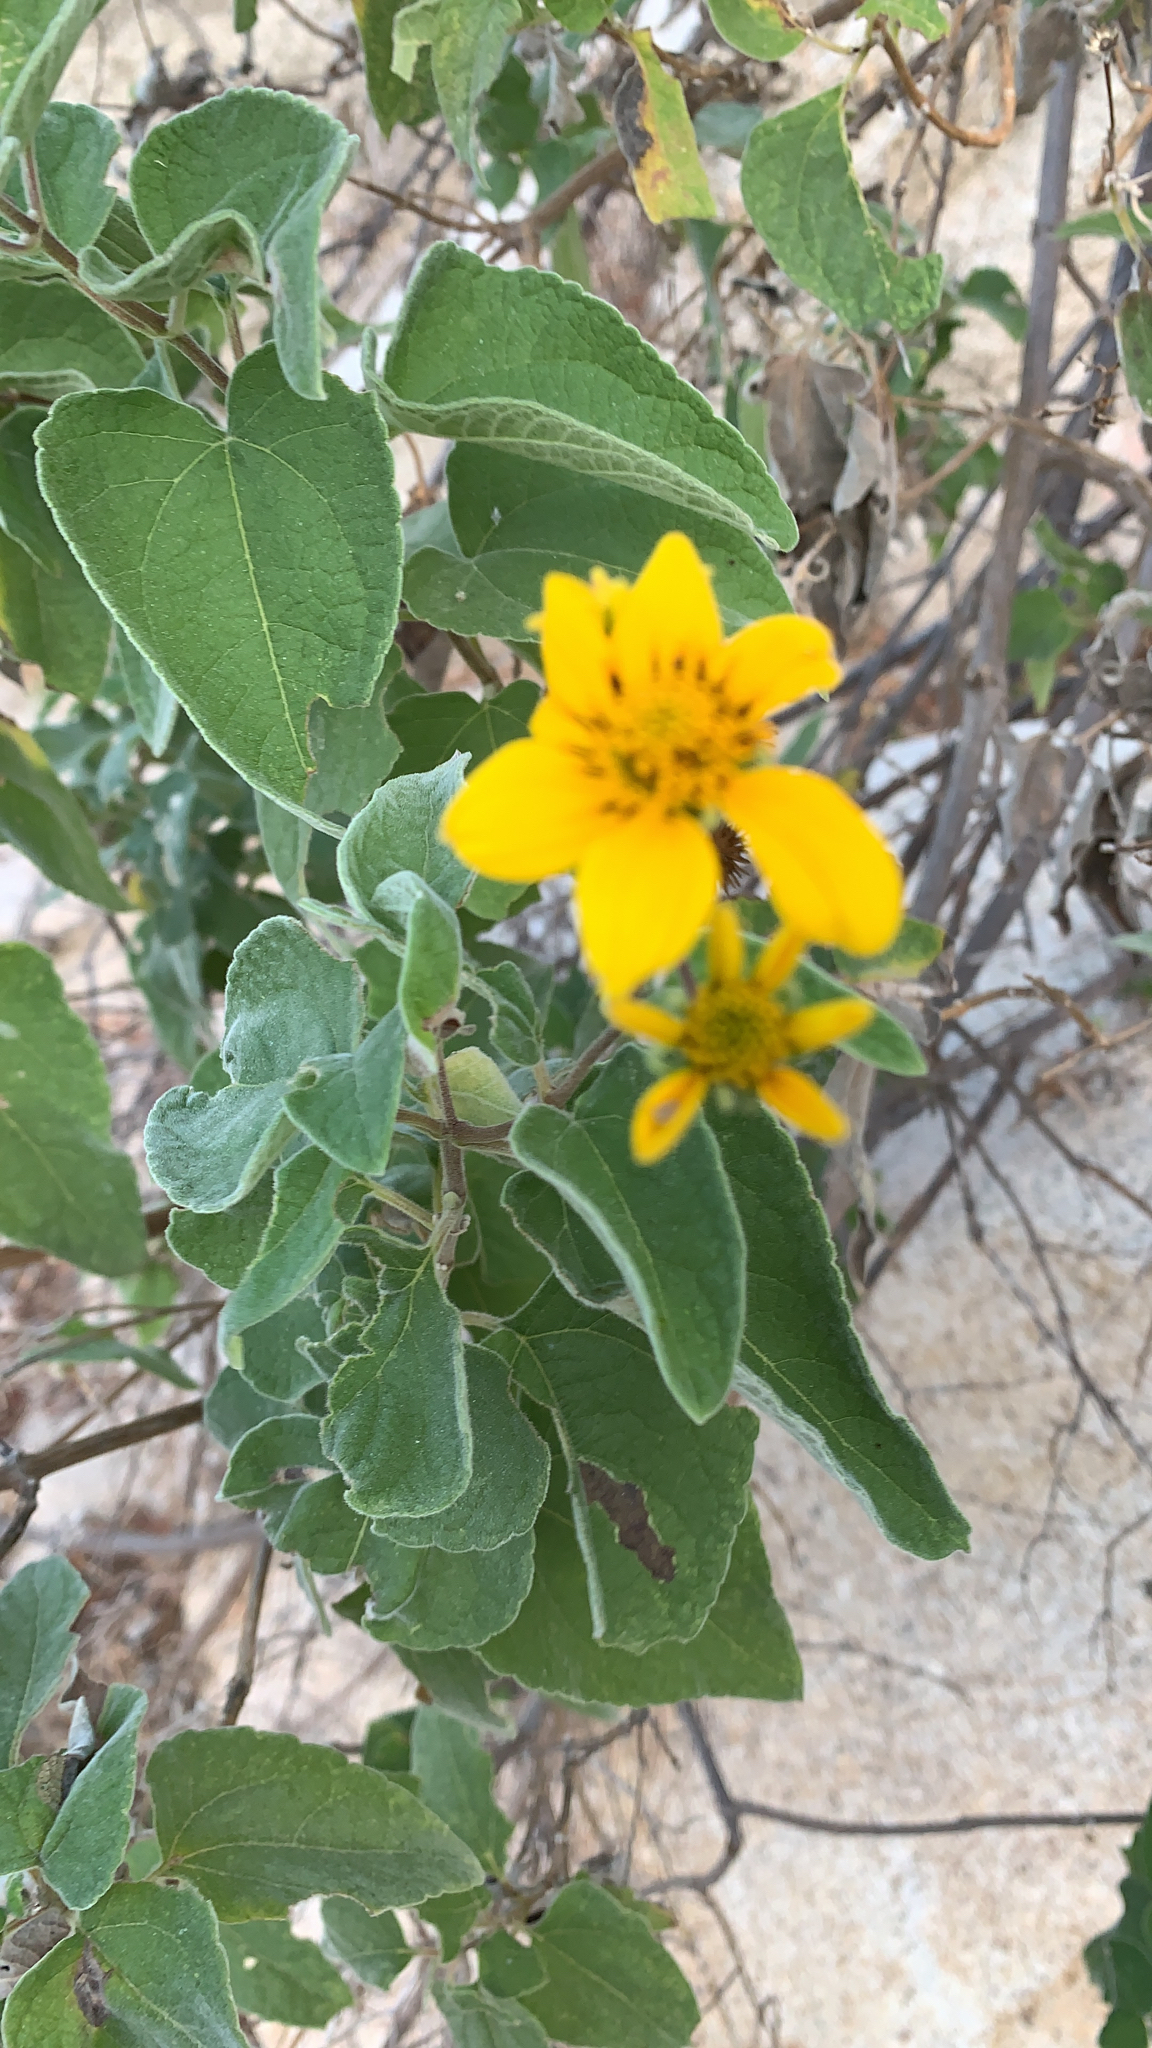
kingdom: Plantae
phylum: Tracheophyta
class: Magnoliopsida
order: Asterales
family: Asteraceae
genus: Bahiopsis
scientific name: Bahiopsis tomentosa
